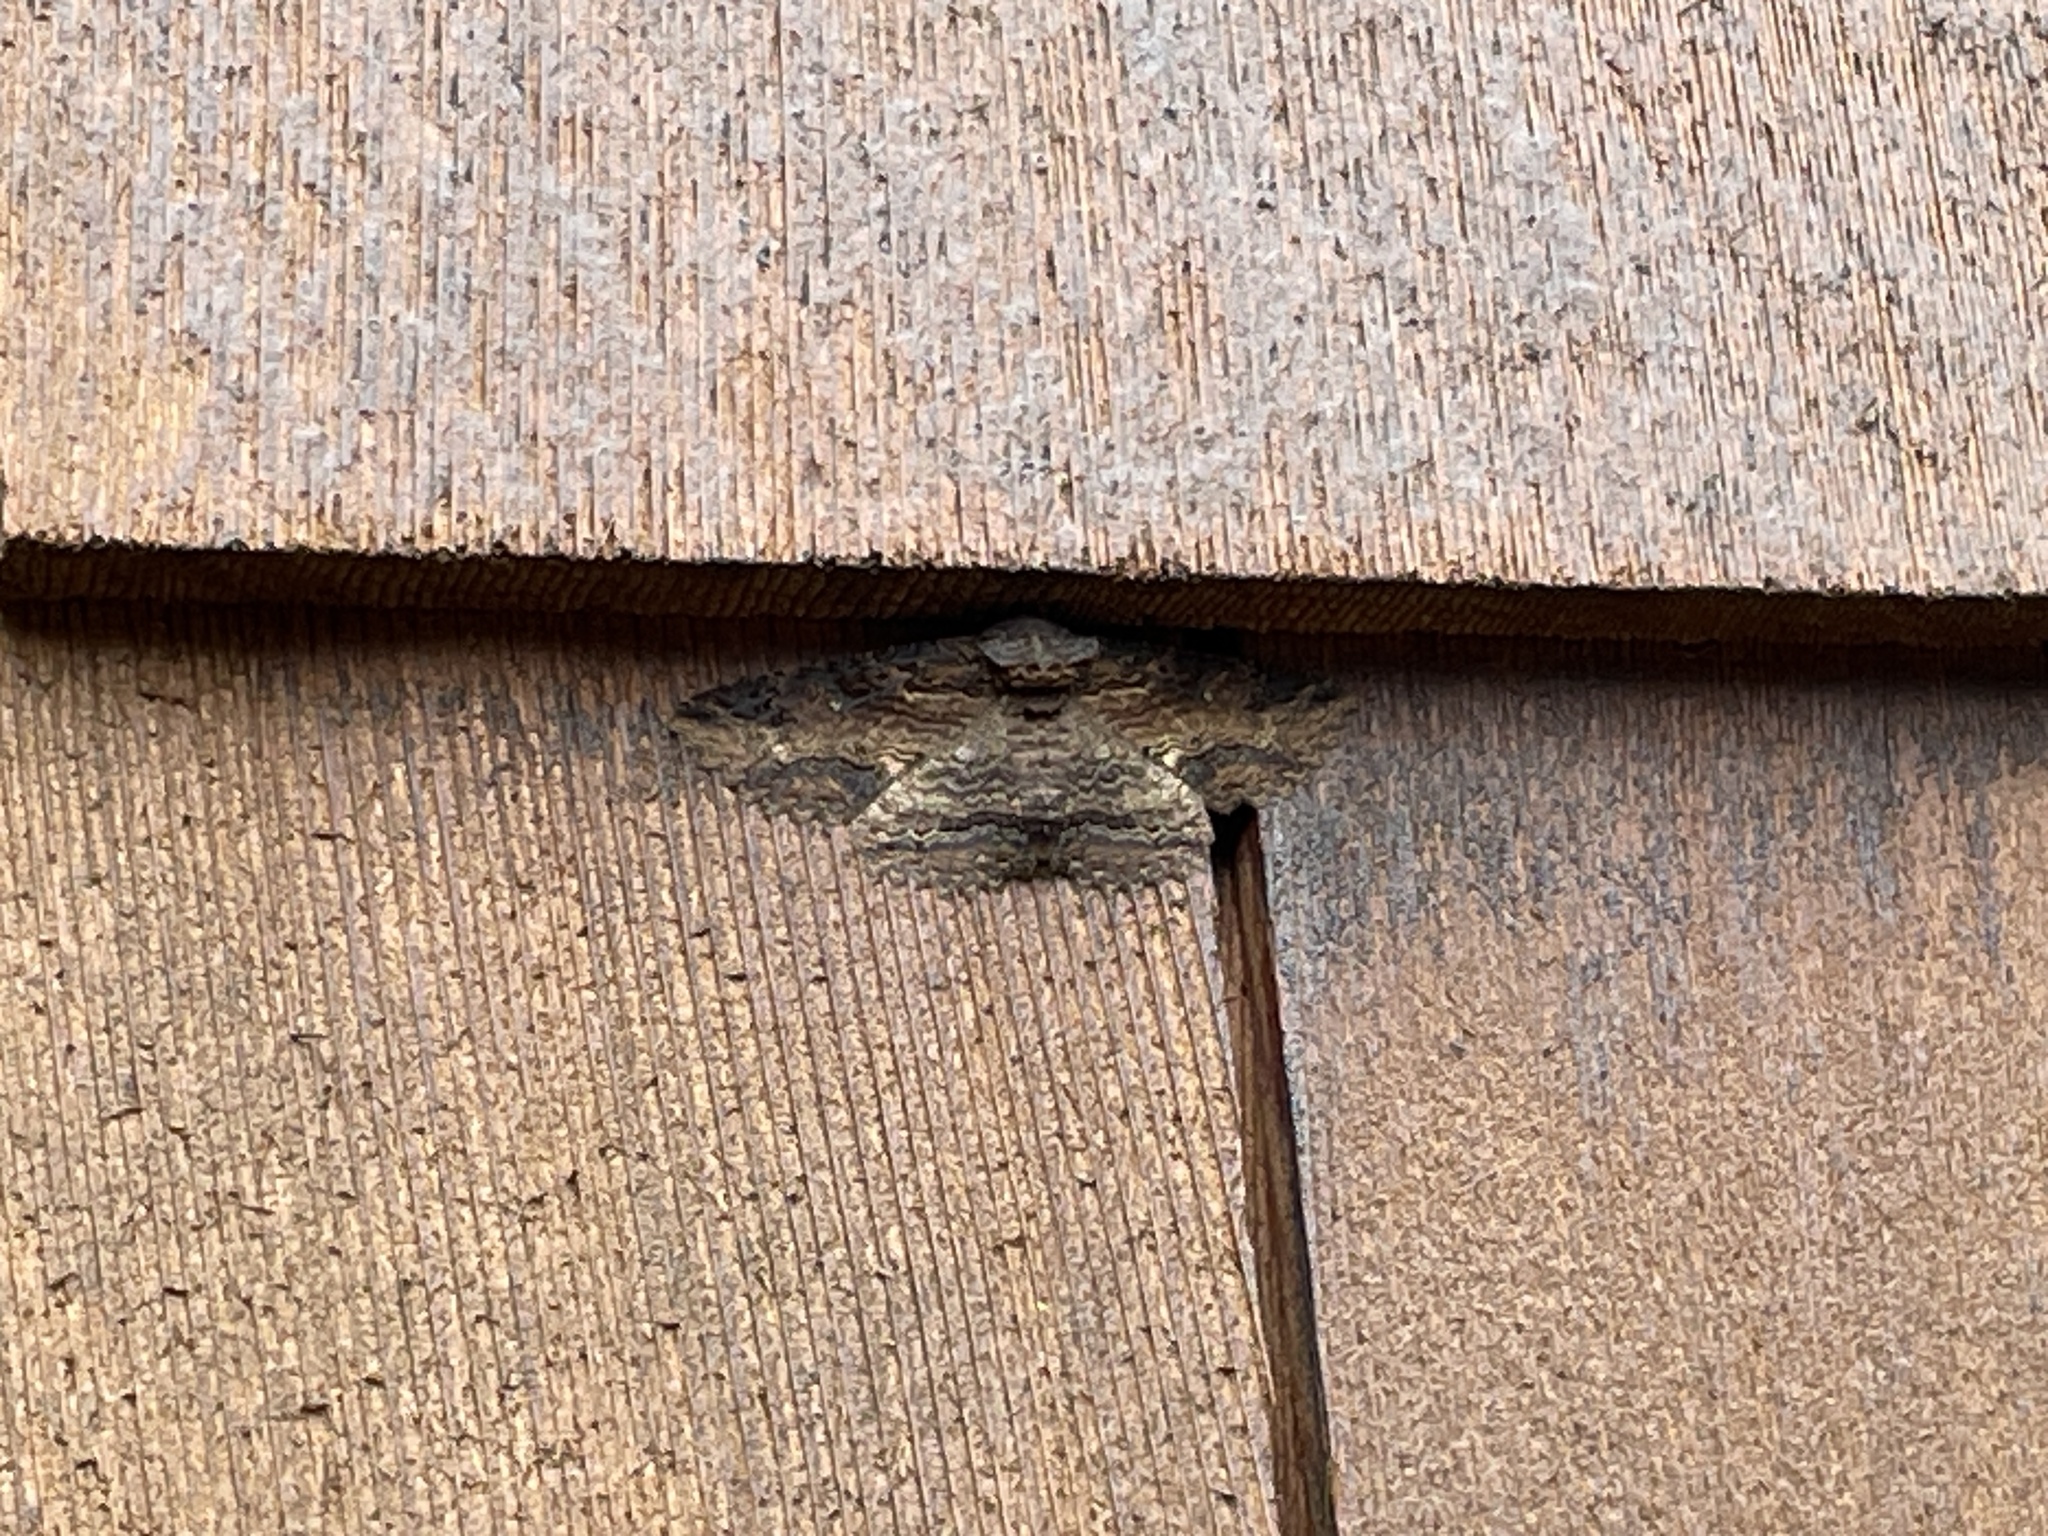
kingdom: Animalia
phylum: Arthropoda
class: Insecta
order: Lepidoptera
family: Erebidae
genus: Zale
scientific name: Zale lunata
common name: Lunate zale moth
